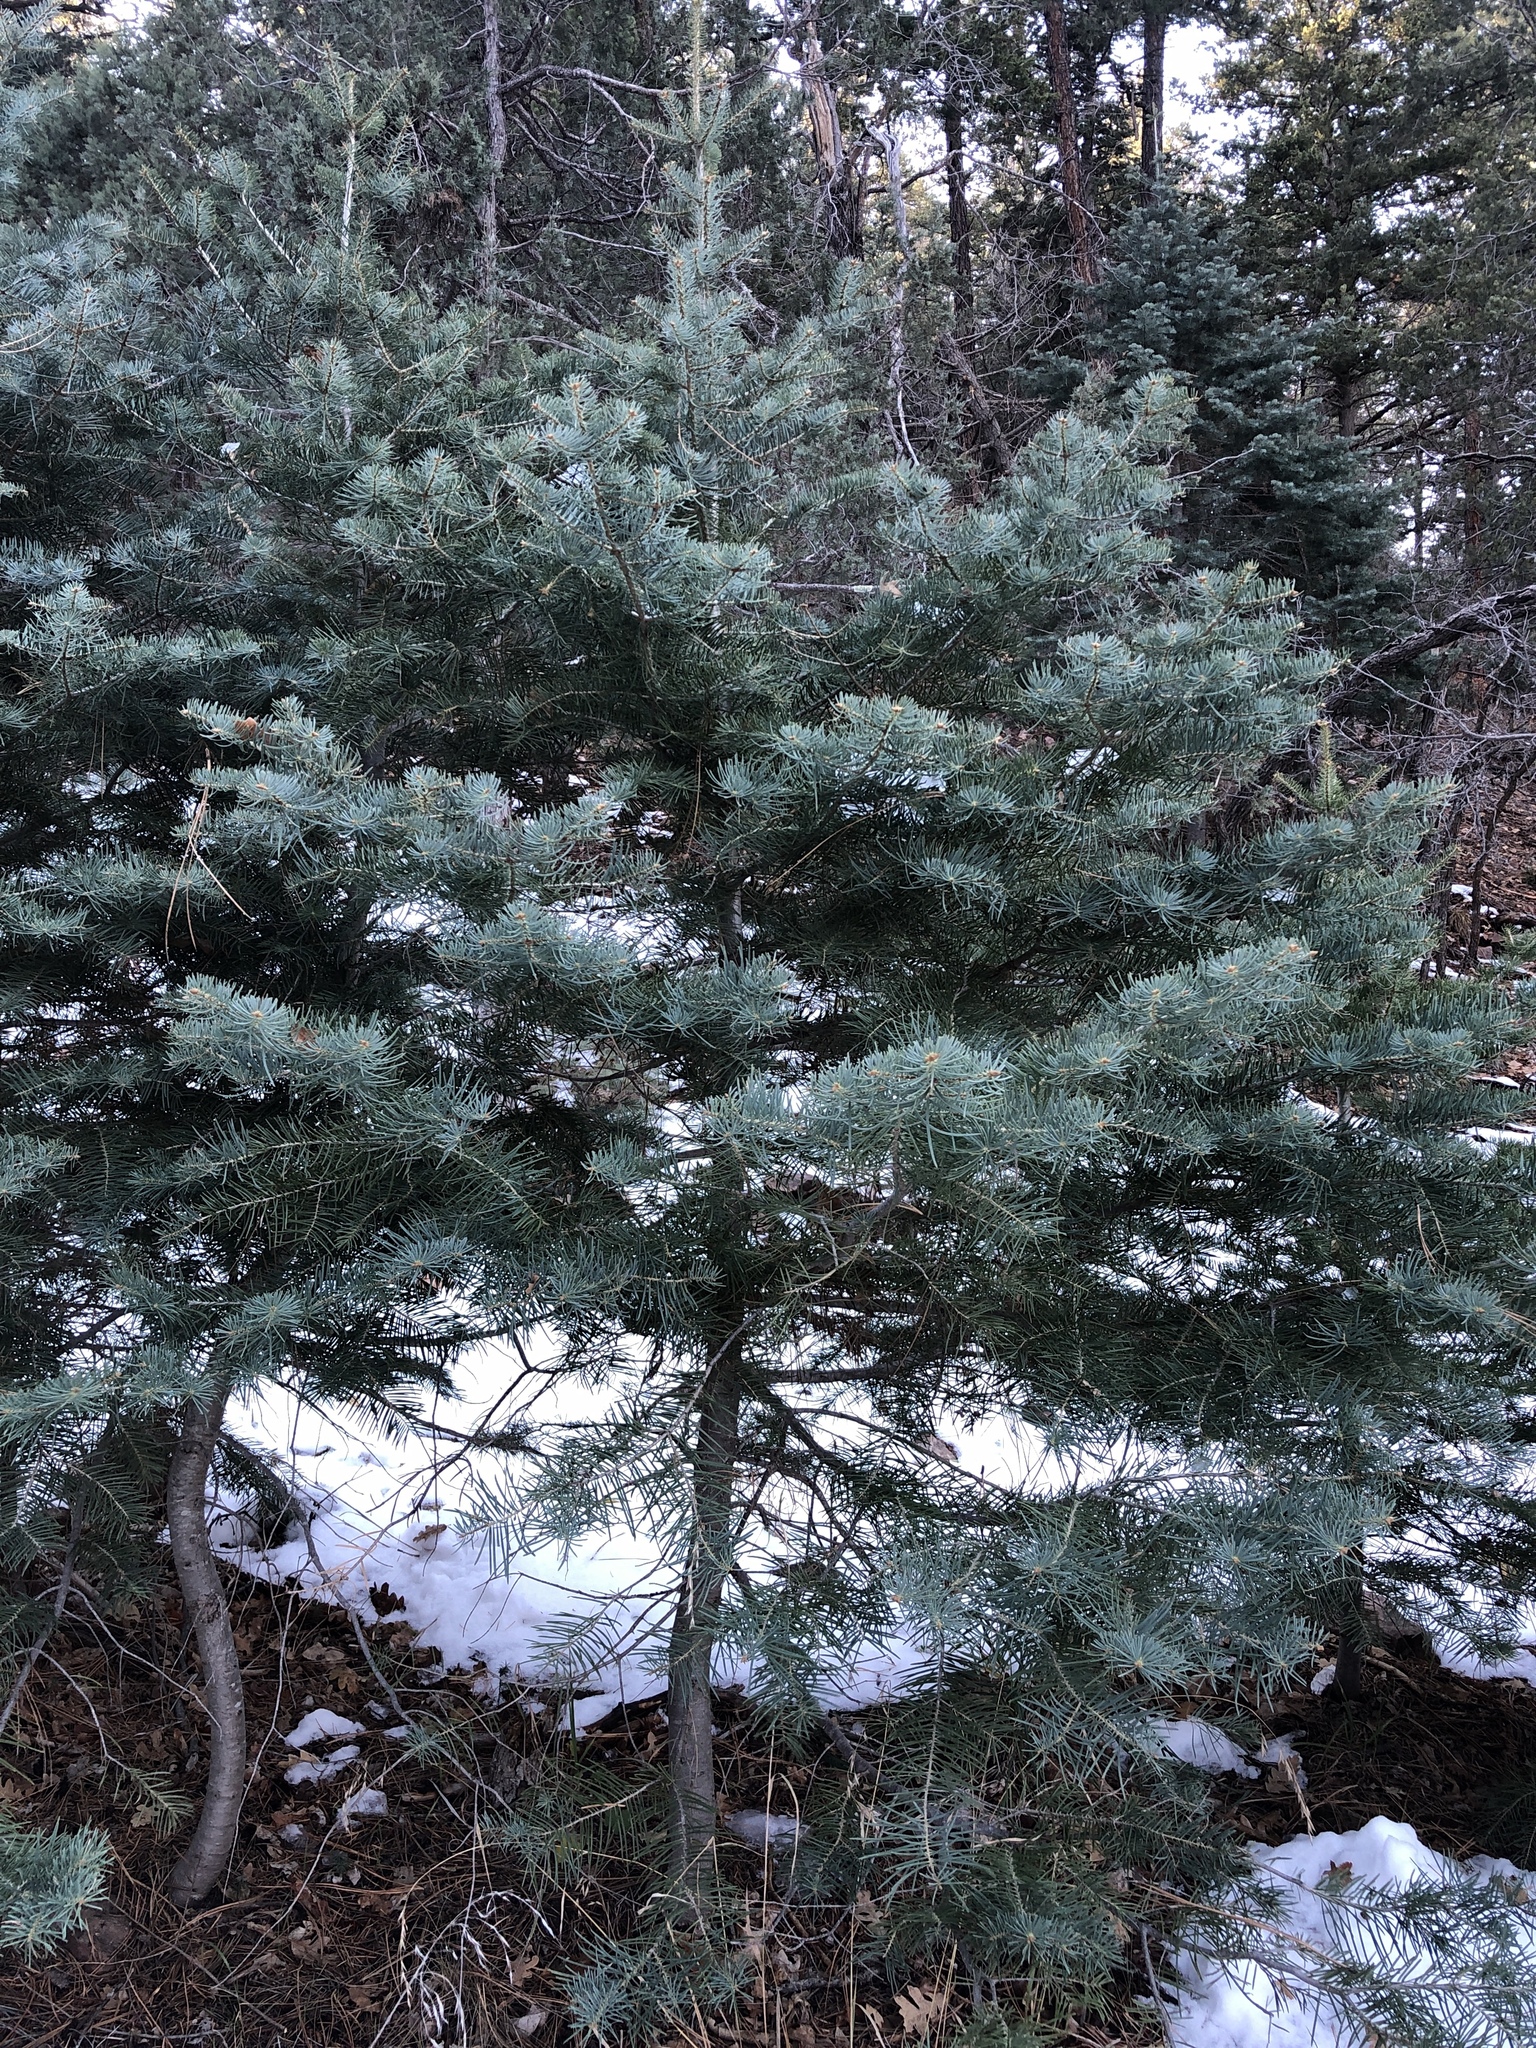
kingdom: Plantae
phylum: Tracheophyta
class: Pinopsida
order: Pinales
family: Pinaceae
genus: Abies
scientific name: Abies concolor
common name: Colorado fir
